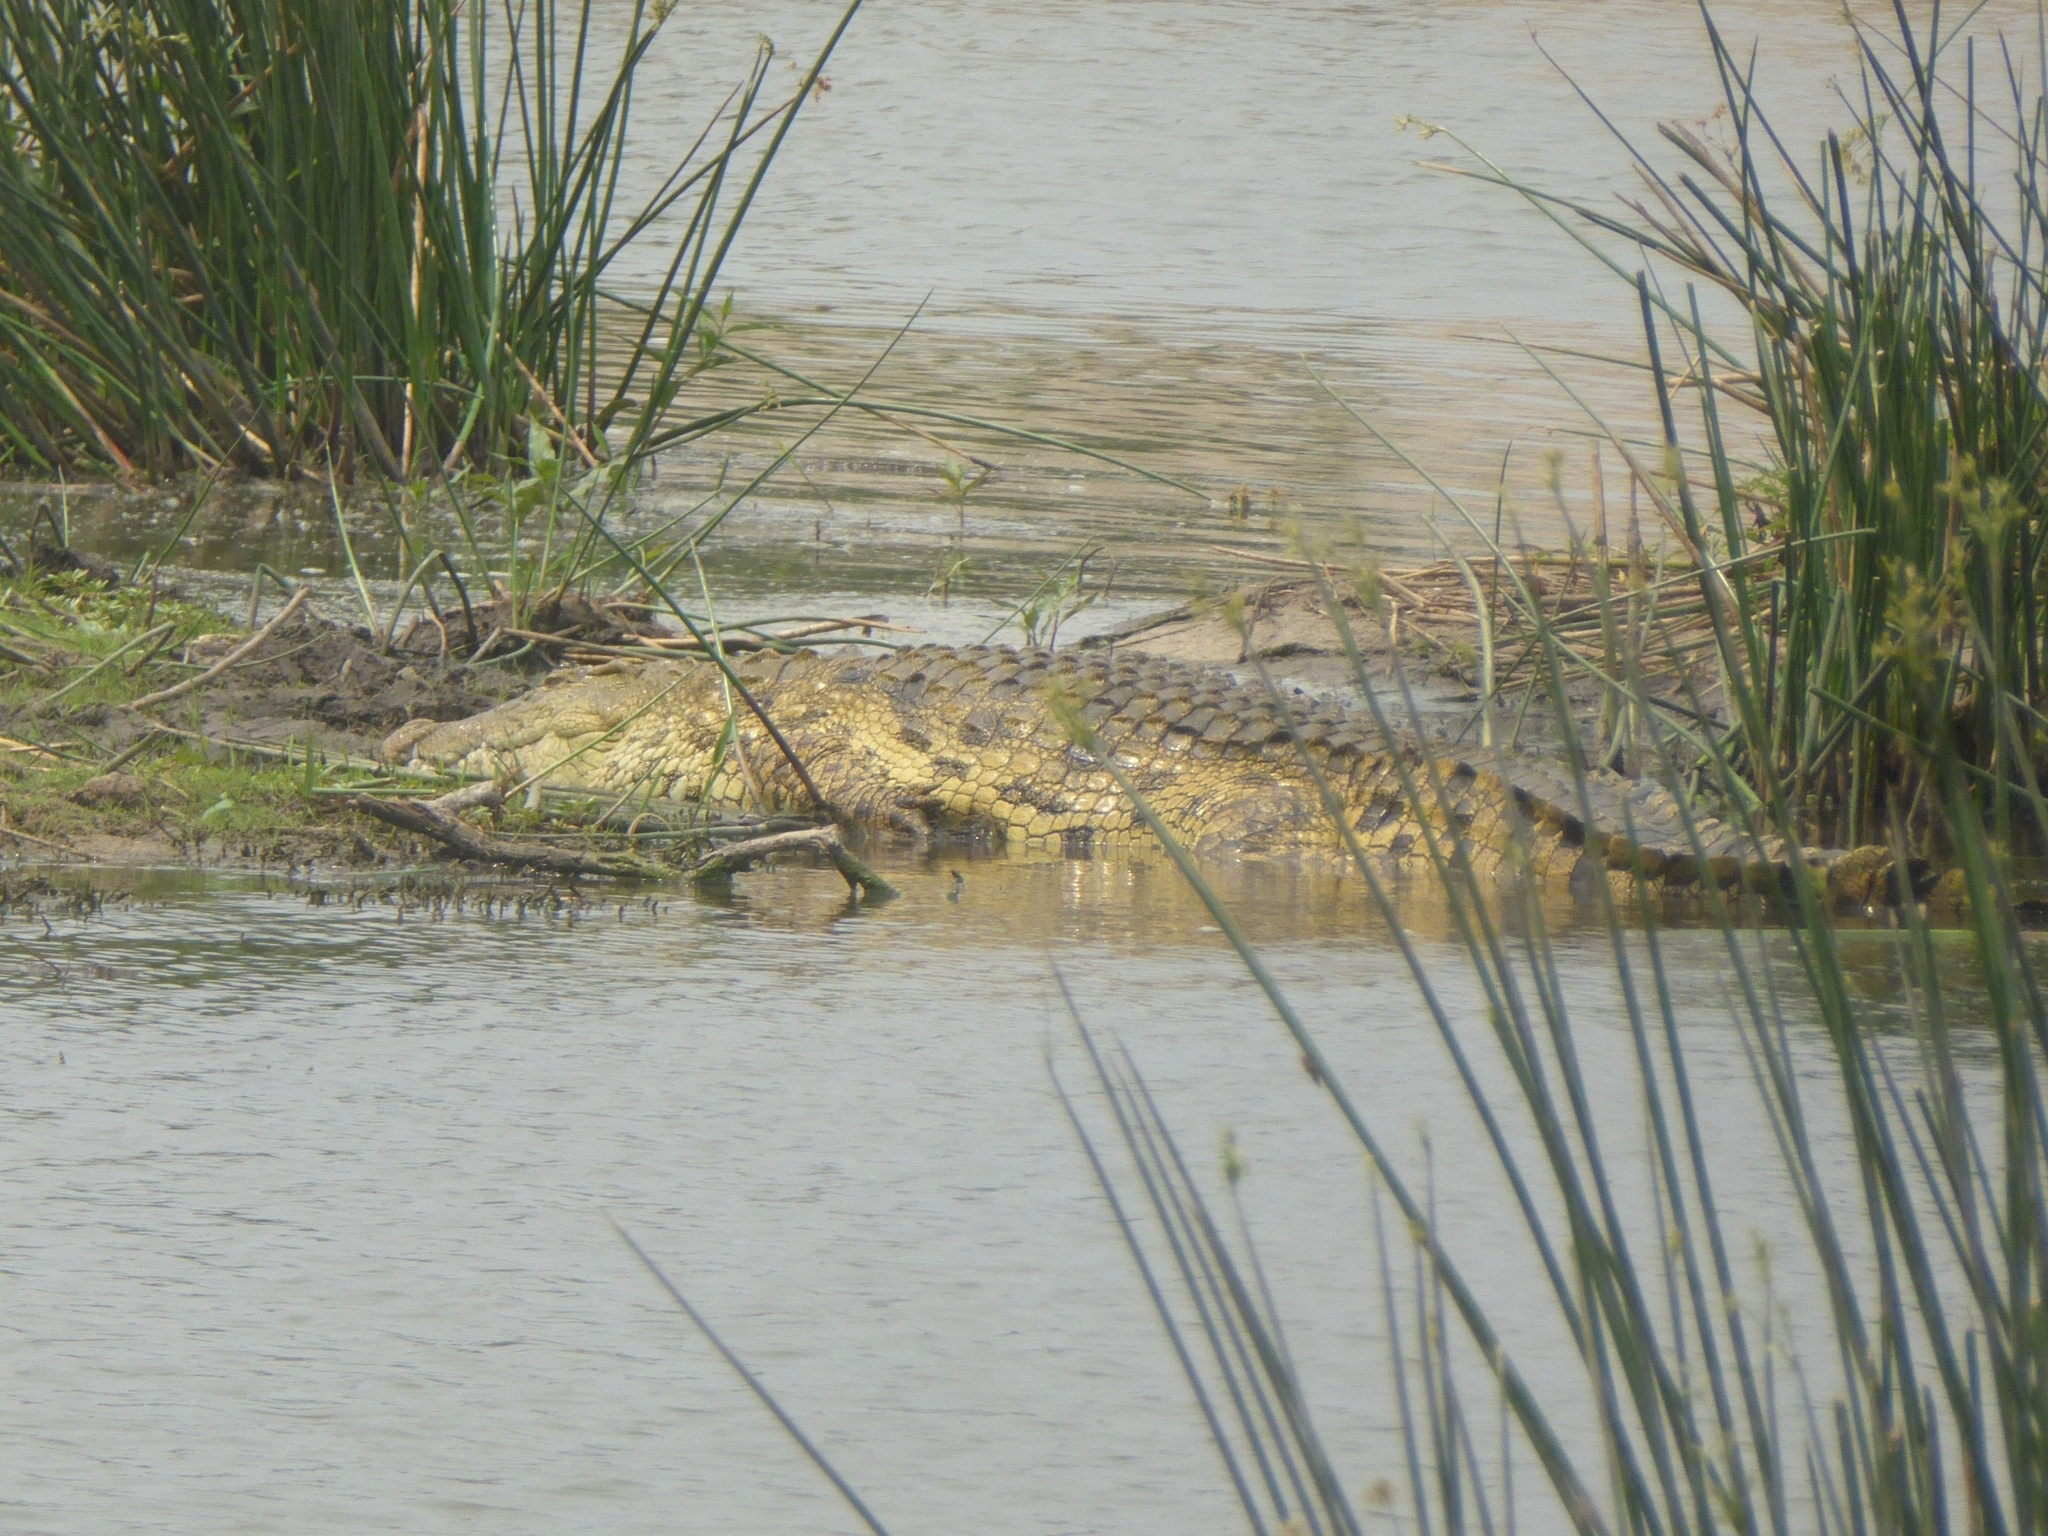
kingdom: Animalia
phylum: Chordata
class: Crocodylia
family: Crocodylidae
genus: Crocodylus
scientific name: Crocodylus niloticus
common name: Nile crocodile
